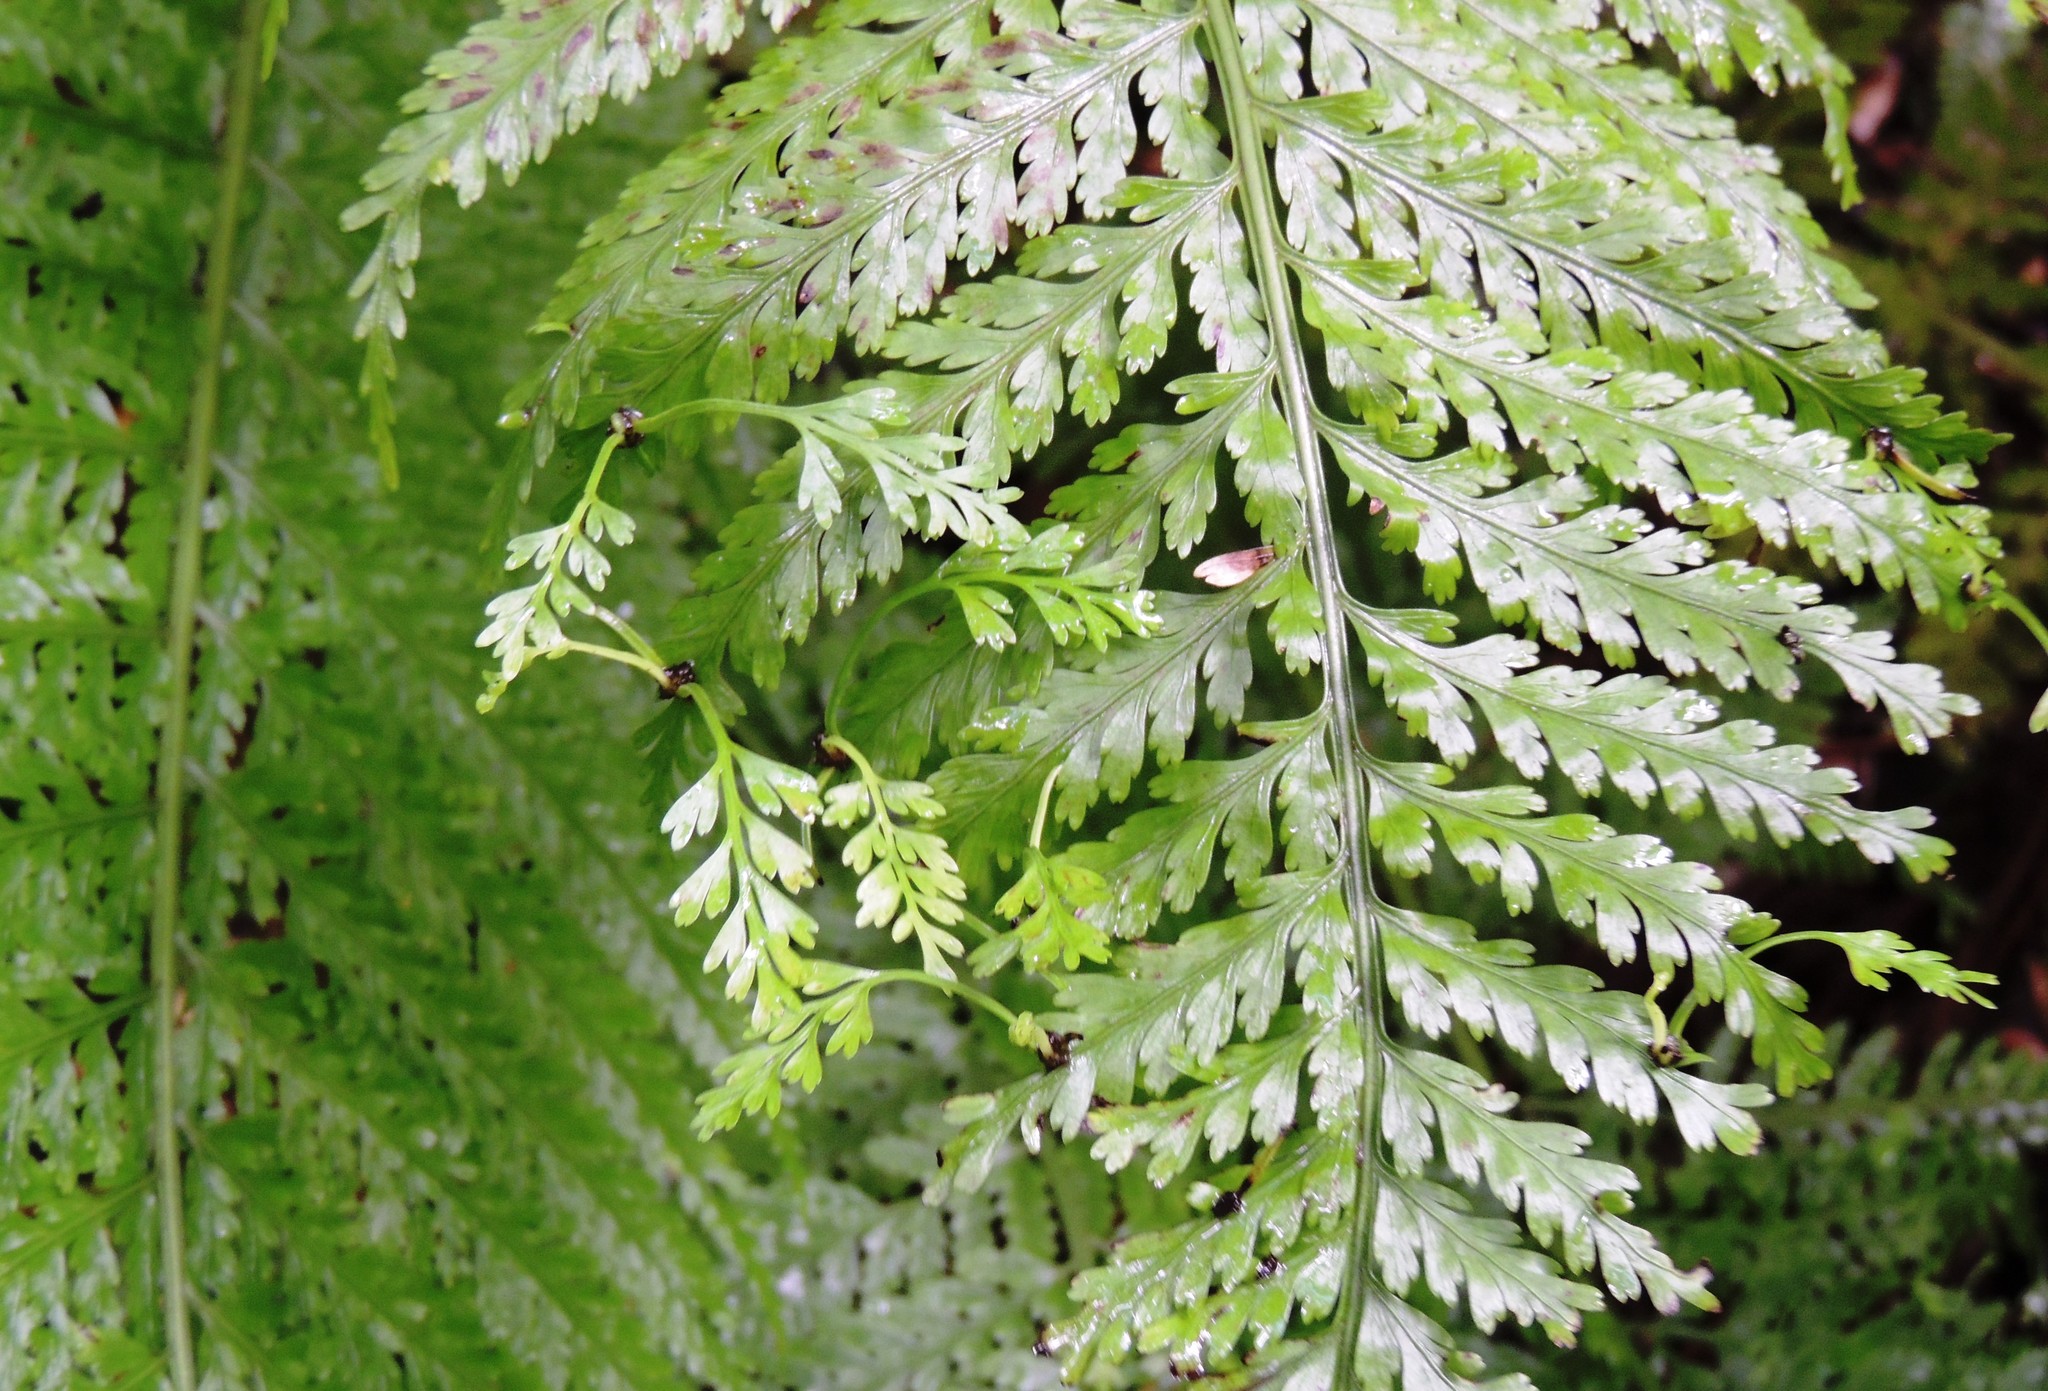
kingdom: Plantae
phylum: Tracheophyta
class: Polypodiopsida
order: Polypodiales
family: Aspleniaceae
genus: Asplenium
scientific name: Asplenium bulbiferum
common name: Mother fern
